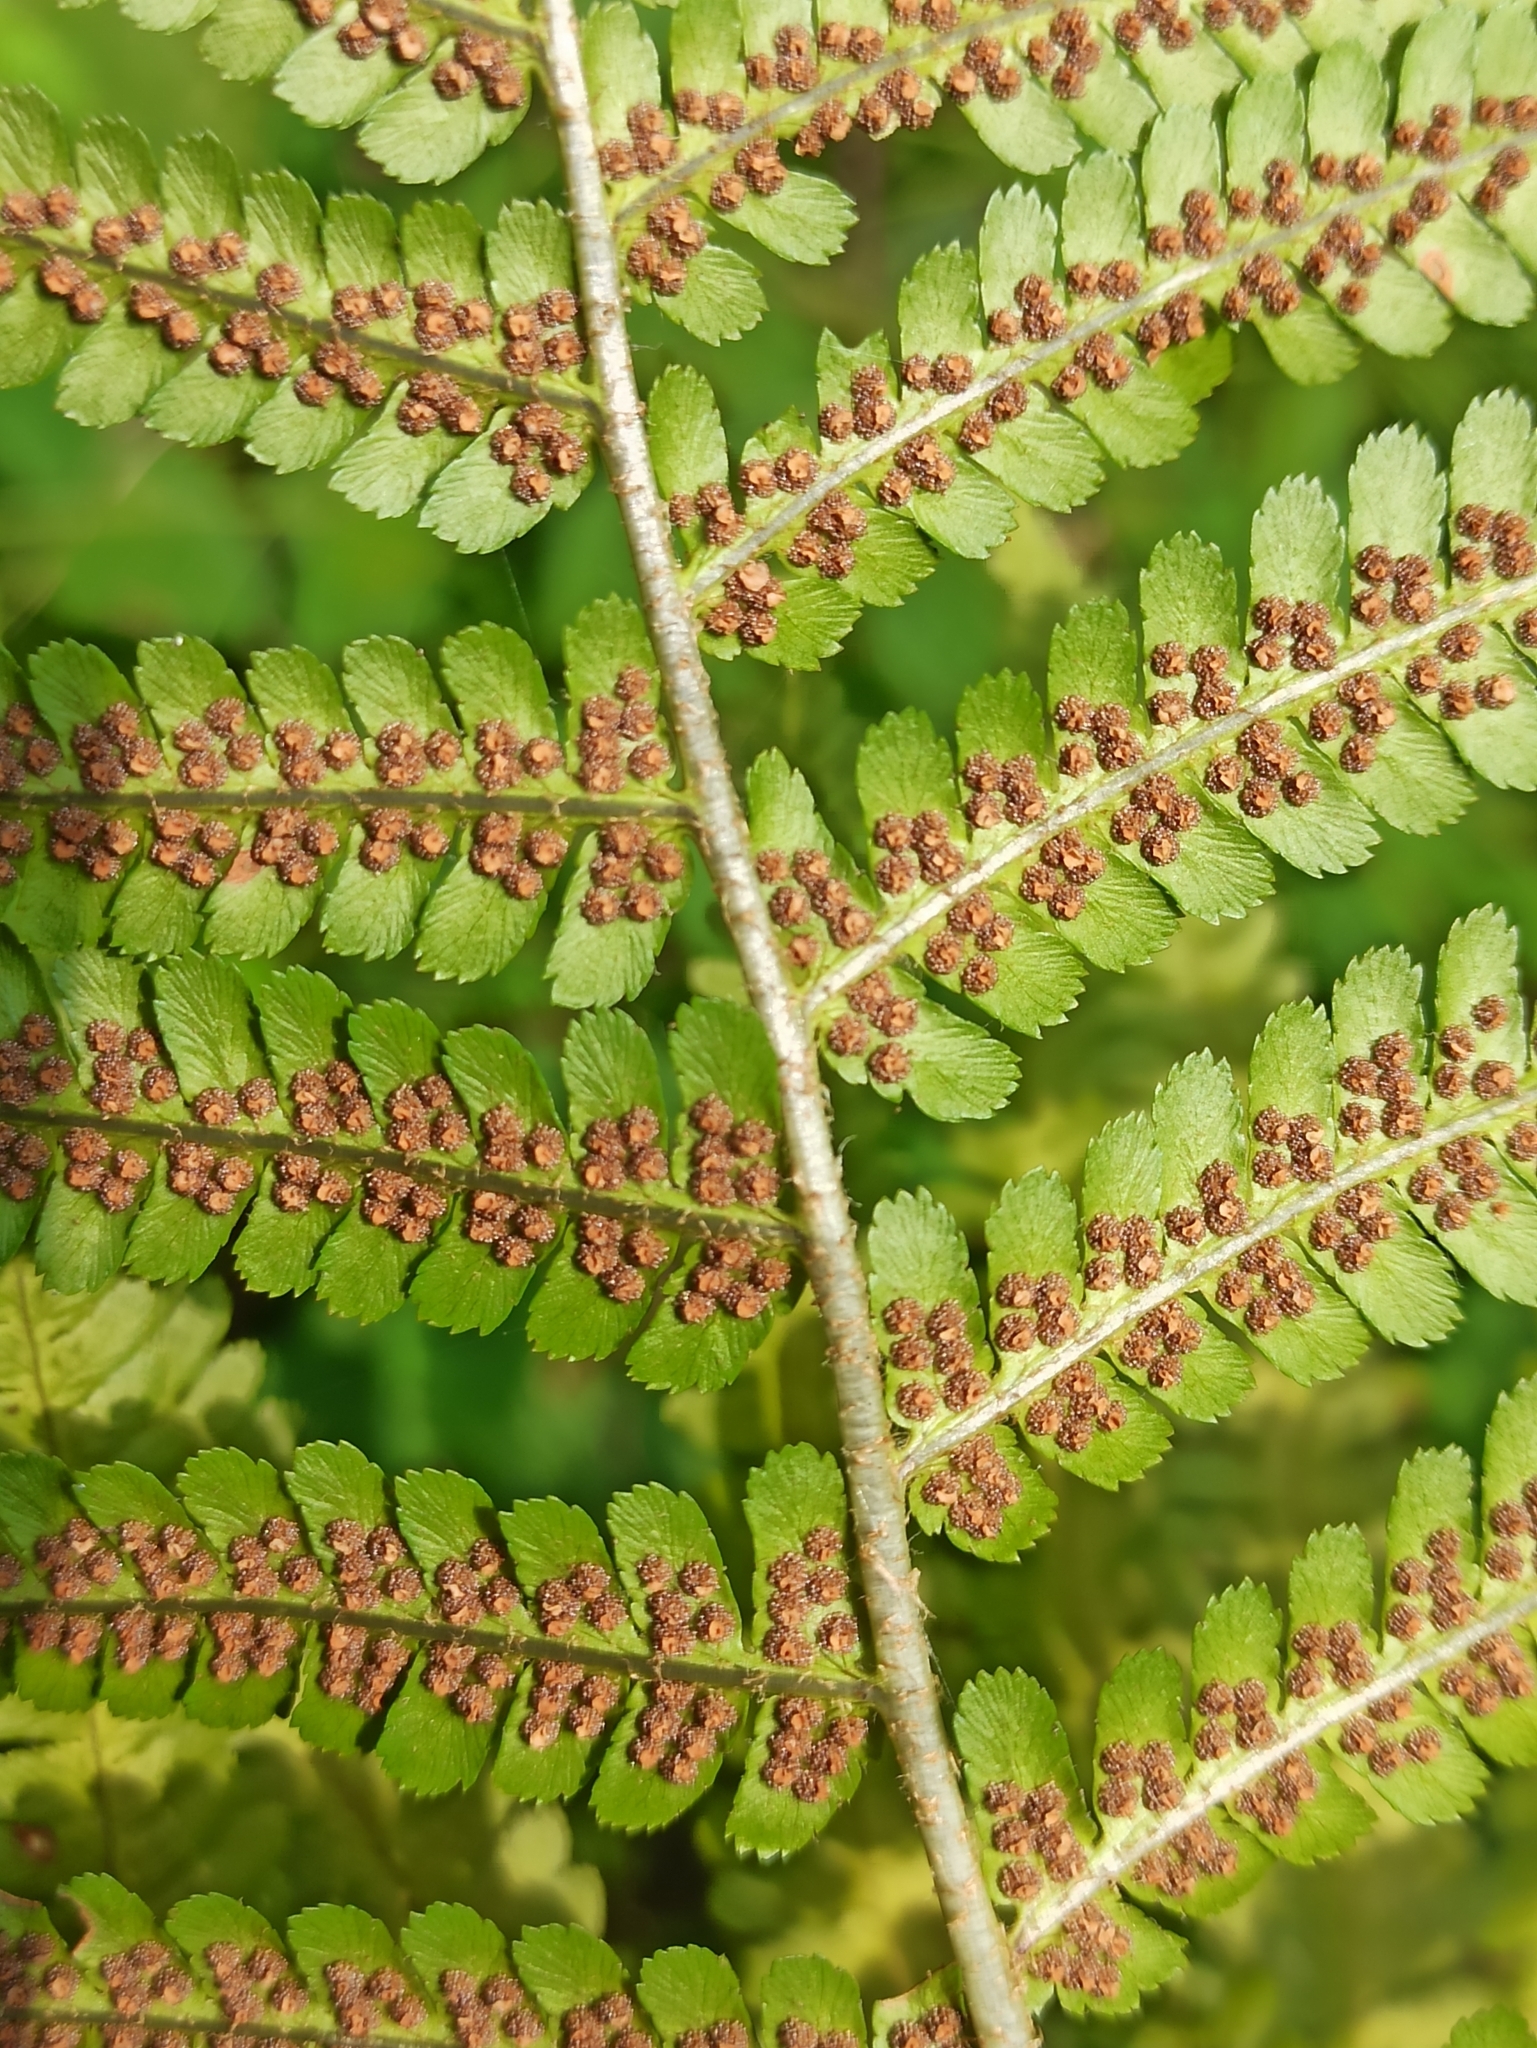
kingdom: Plantae
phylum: Tracheophyta
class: Polypodiopsida
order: Polypodiales
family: Dryopteridaceae
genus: Dryopteris
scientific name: Dryopteris filix-mas
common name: Male fern
